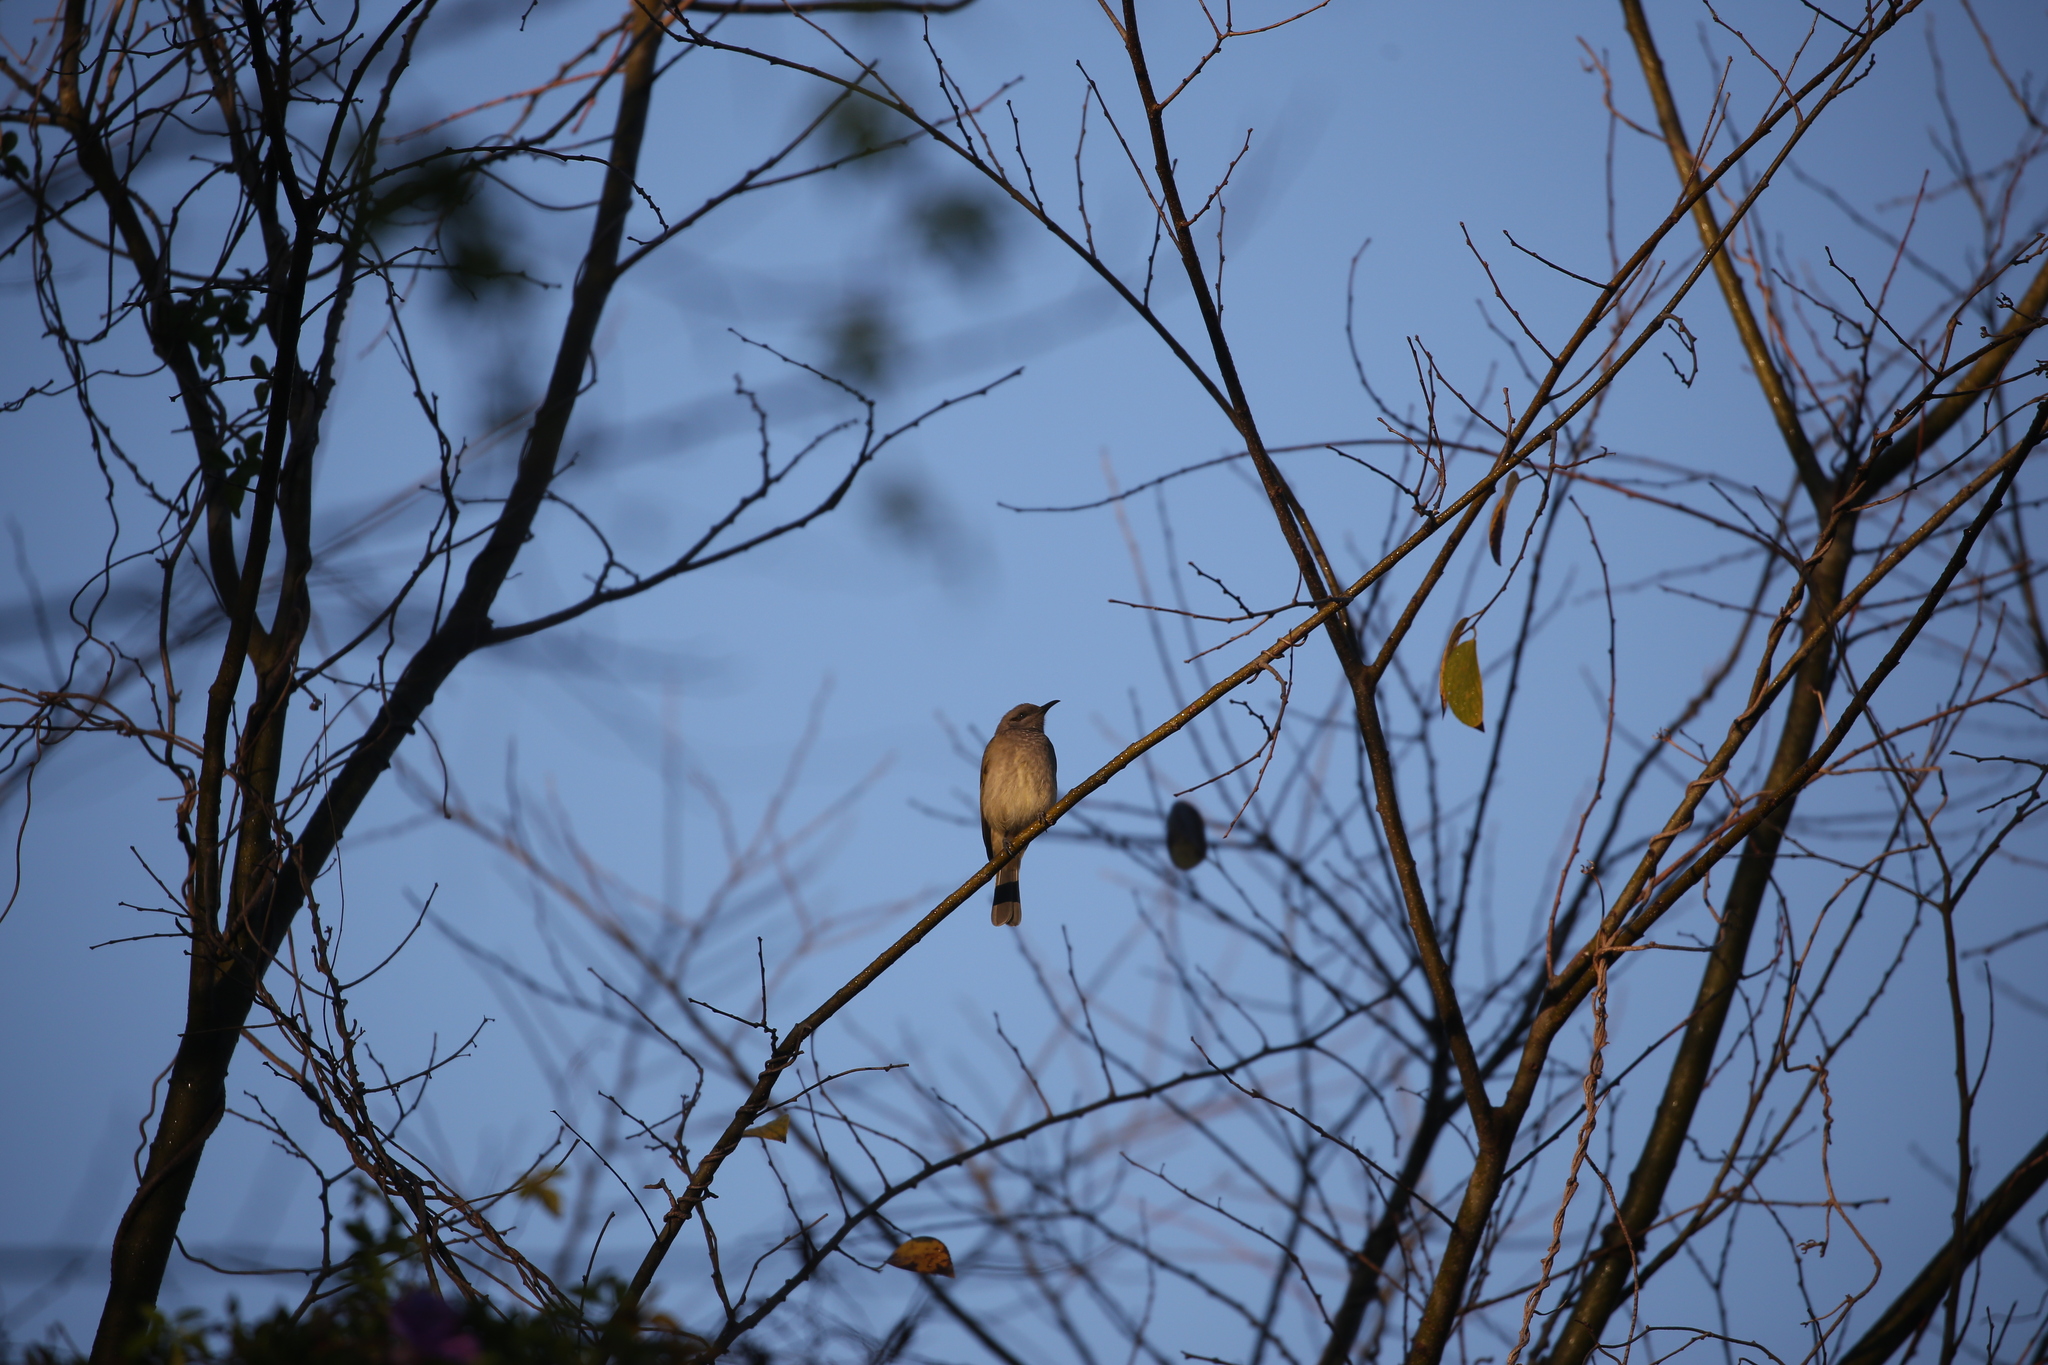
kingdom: Animalia
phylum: Chordata
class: Aves
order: Passeriformes
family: Meliphagidae
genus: Lichmera
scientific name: Lichmera indistincta
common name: Brown honeyeater
